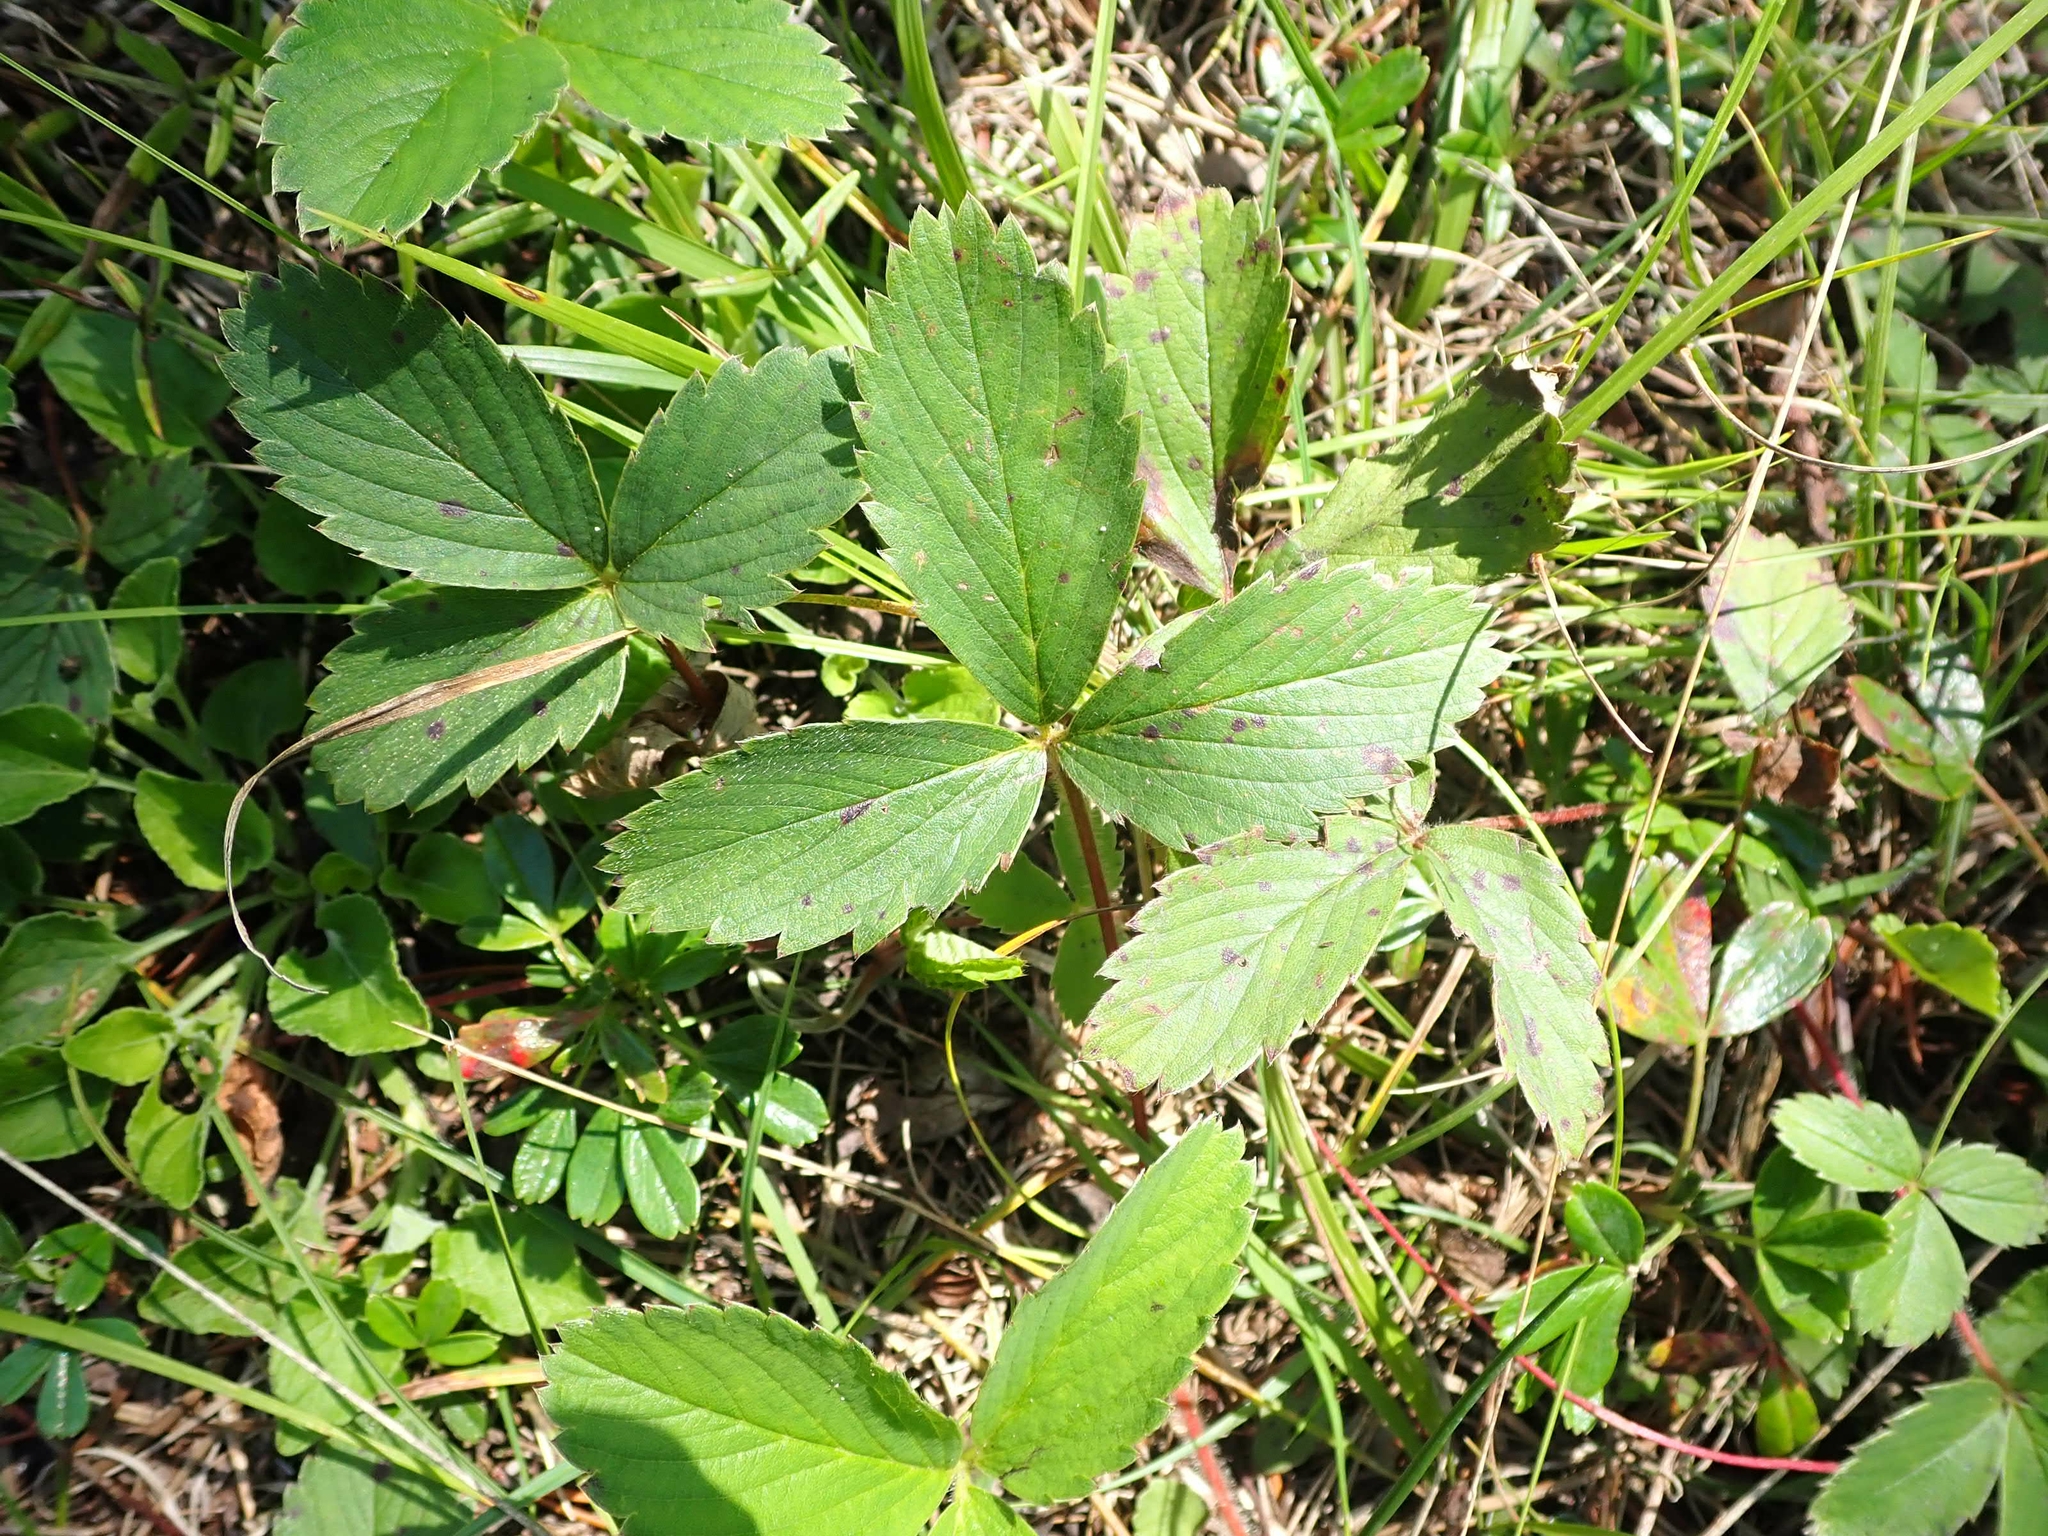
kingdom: Plantae
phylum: Tracheophyta
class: Magnoliopsida
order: Rosales
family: Rosaceae
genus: Fragaria
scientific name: Fragaria virginiana
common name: Thickleaved wild strawberry
